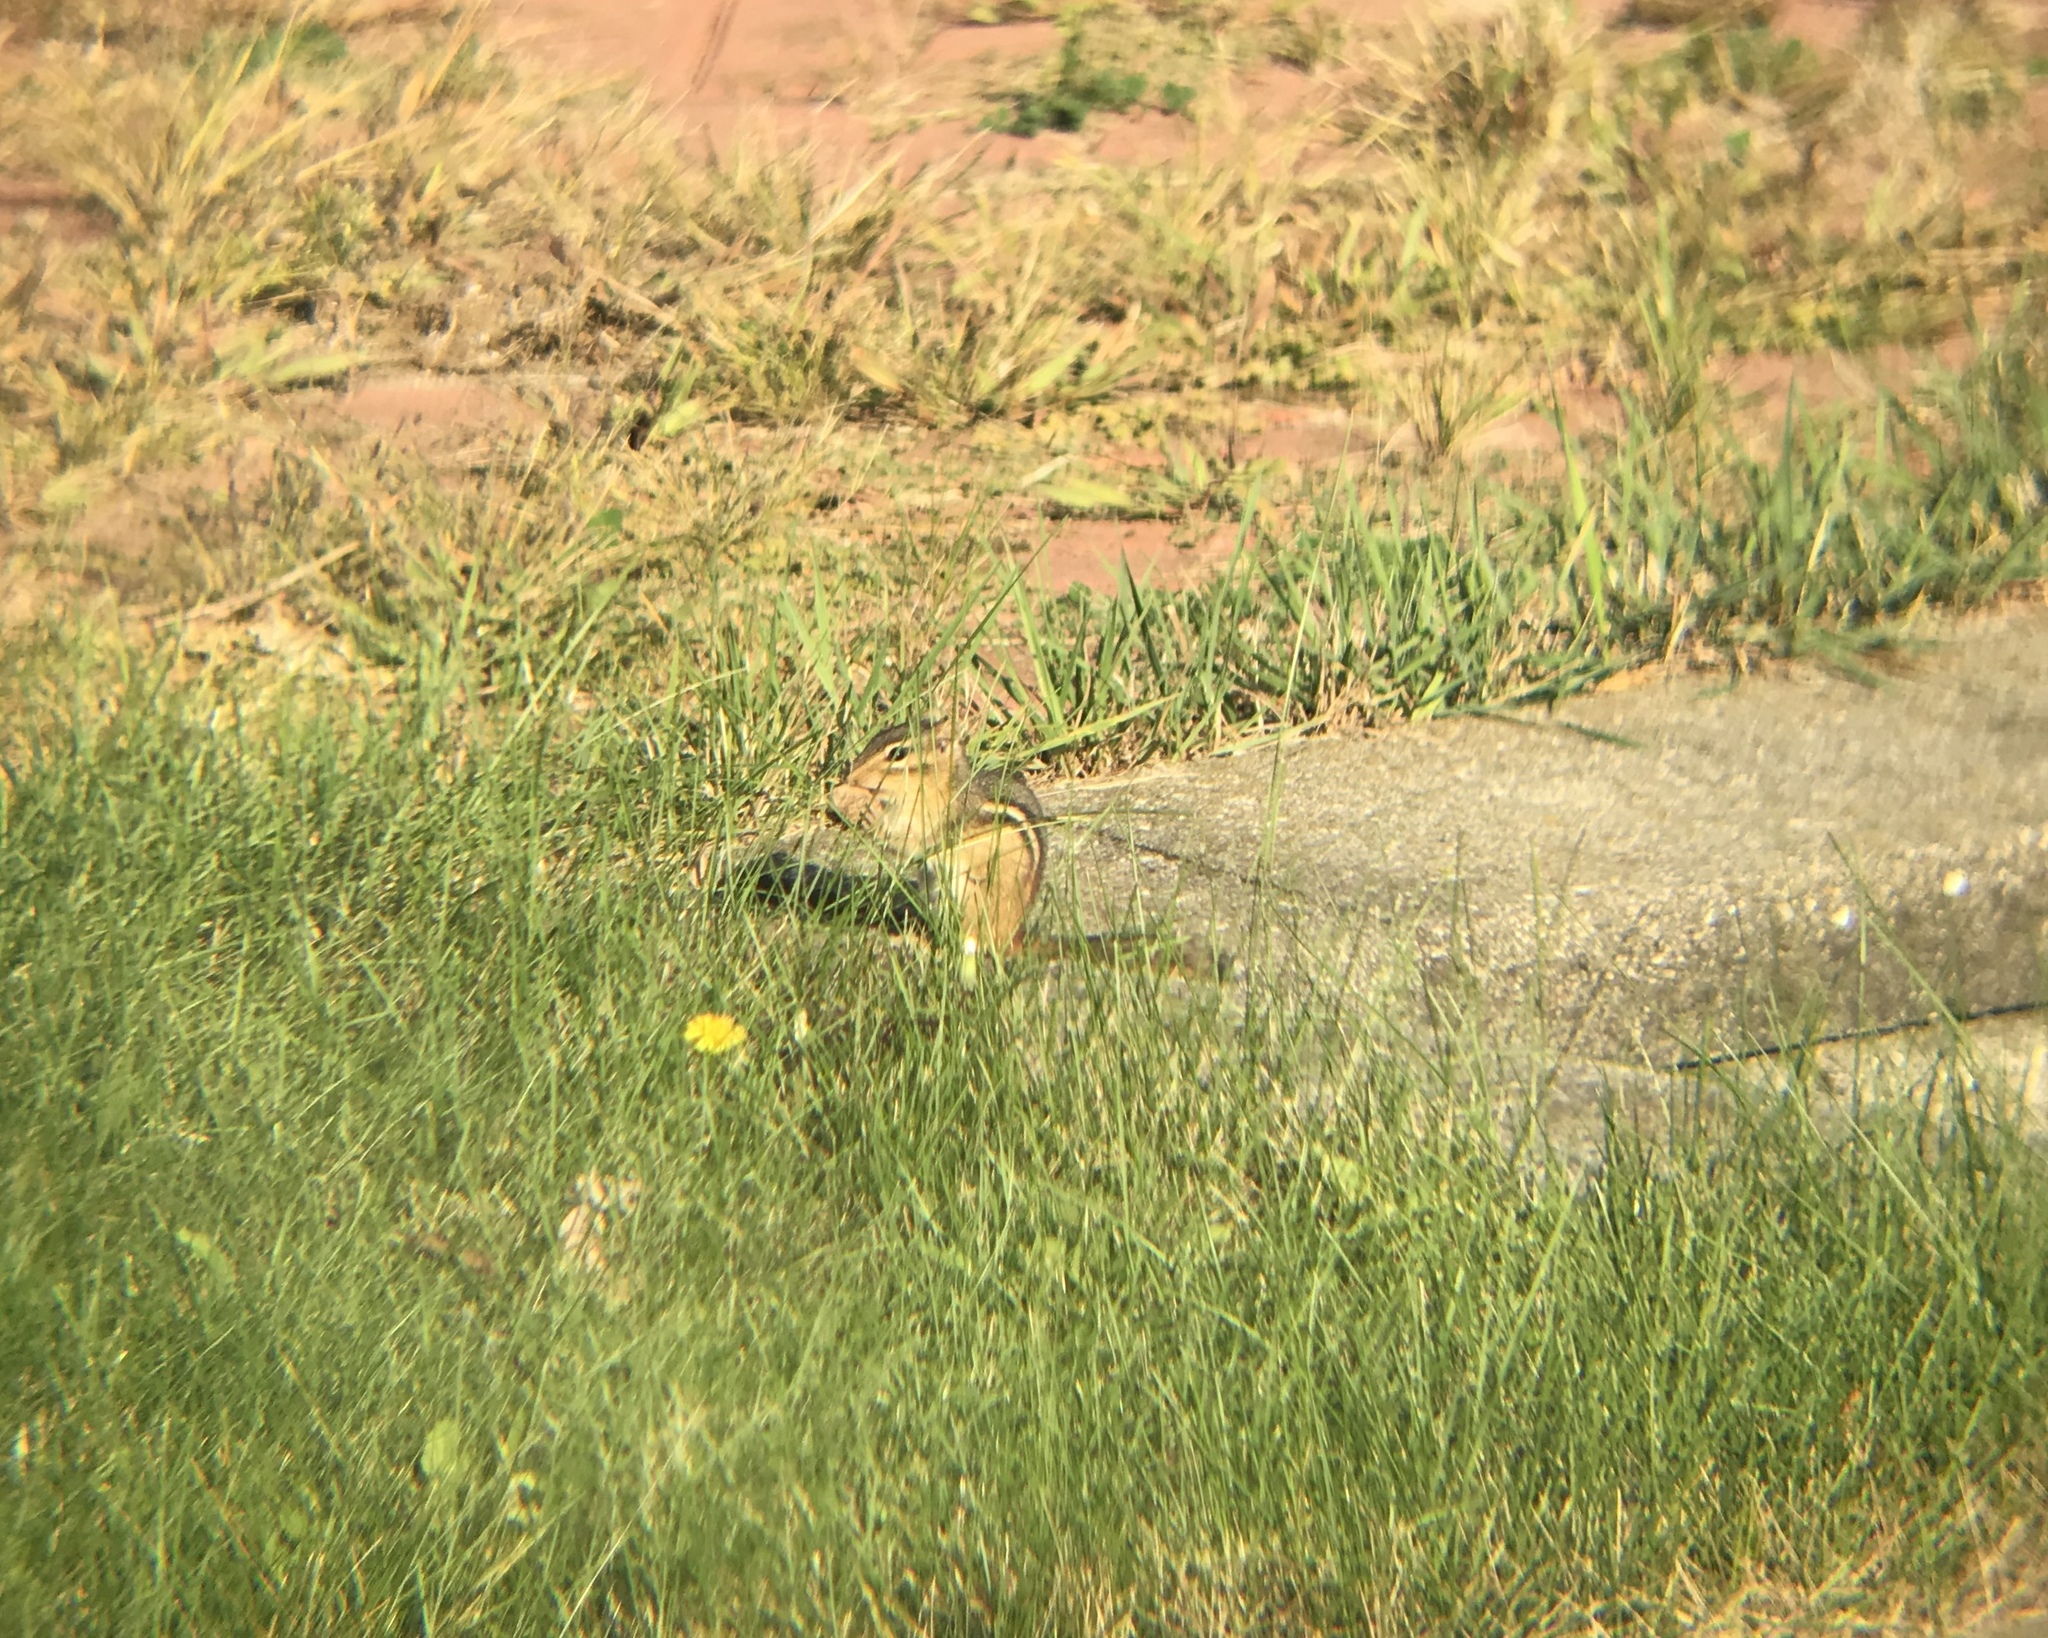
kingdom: Animalia
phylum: Chordata
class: Mammalia
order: Rodentia
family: Sciuridae
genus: Tamias
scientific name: Tamias striatus
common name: Eastern chipmunk
